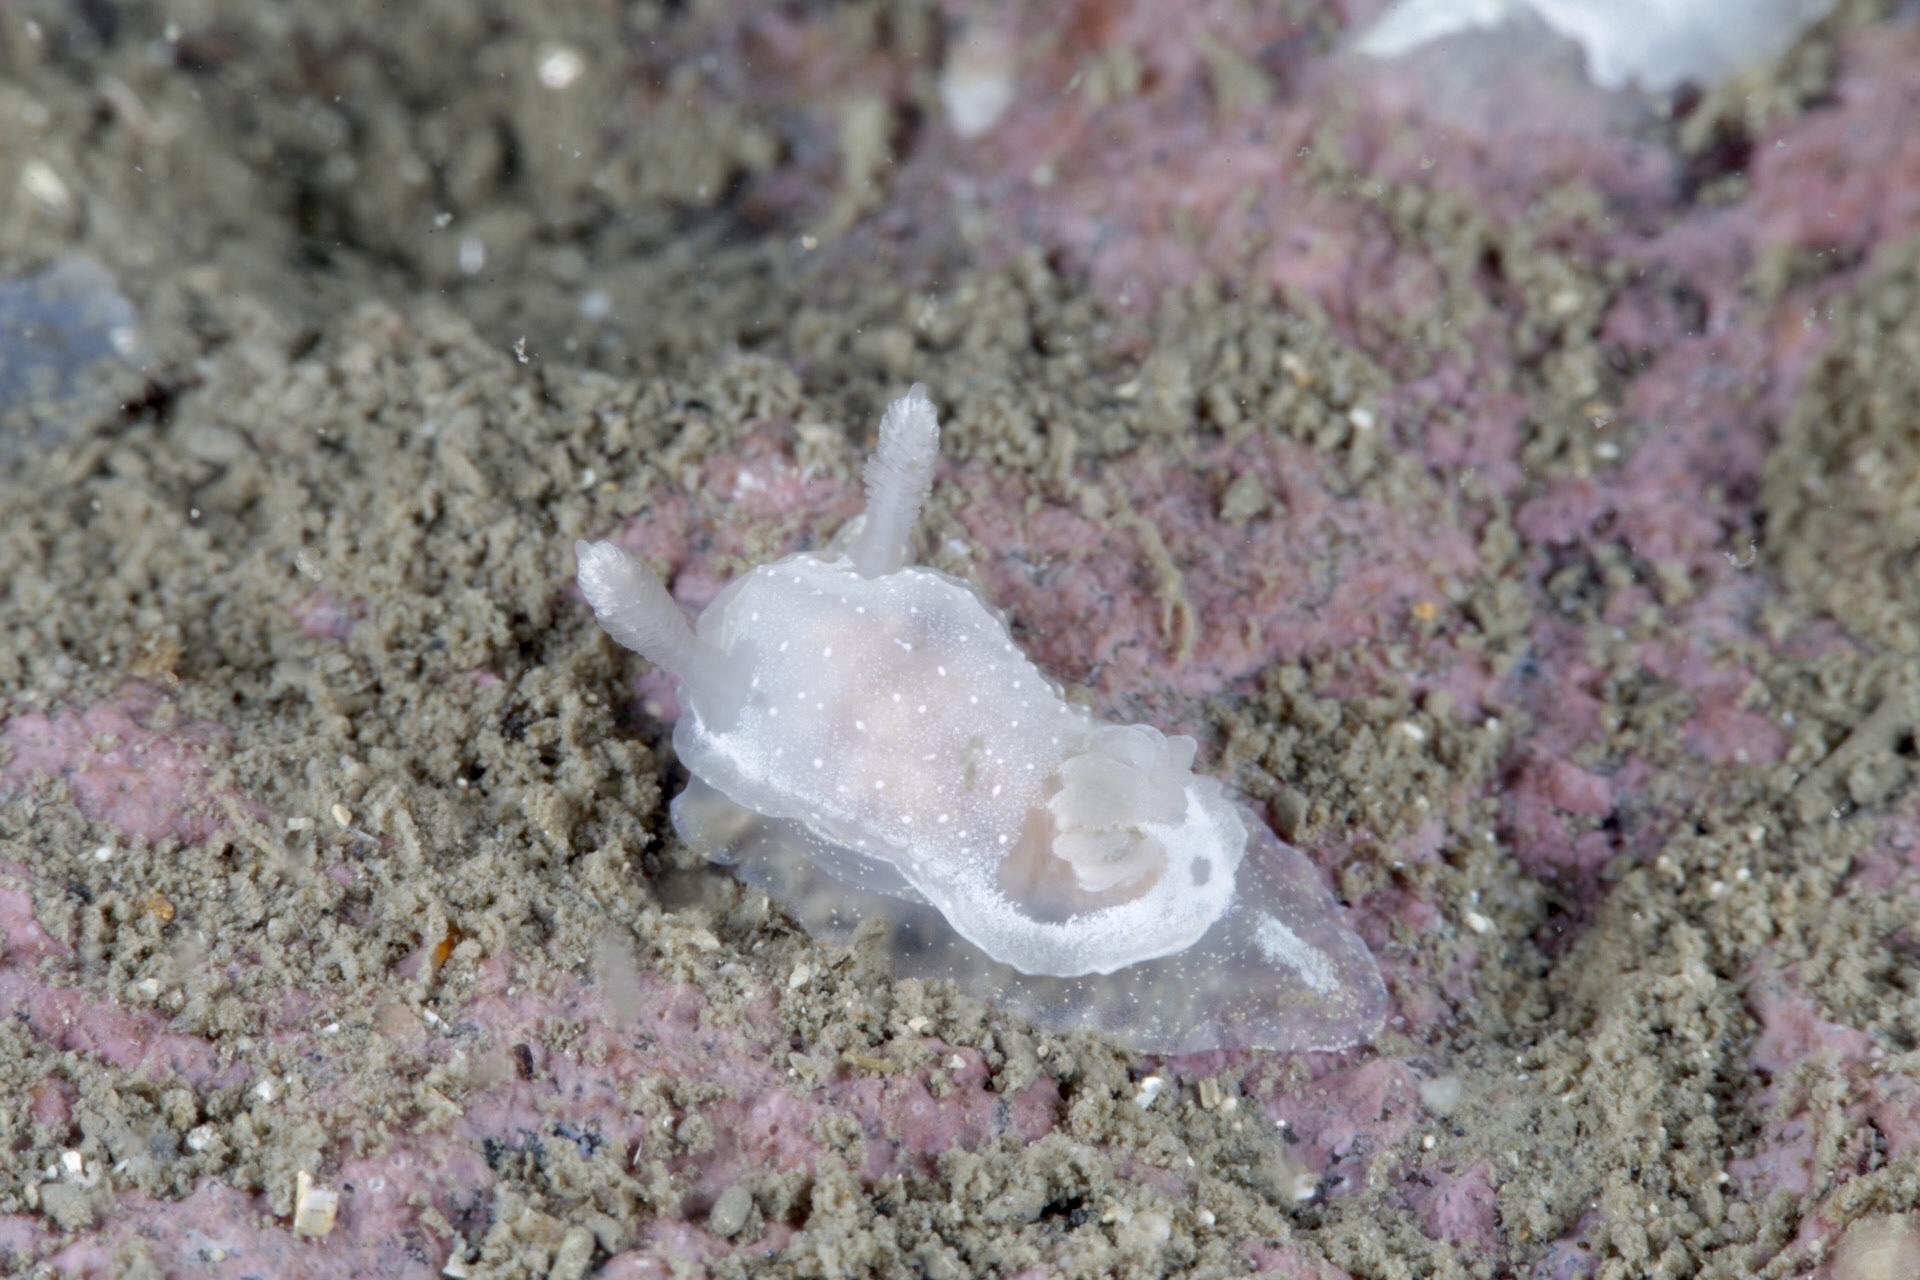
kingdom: Animalia
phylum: Mollusca
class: Gastropoda
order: Nudibranchia
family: Goniodorididae
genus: Okenia
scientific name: Okenia
